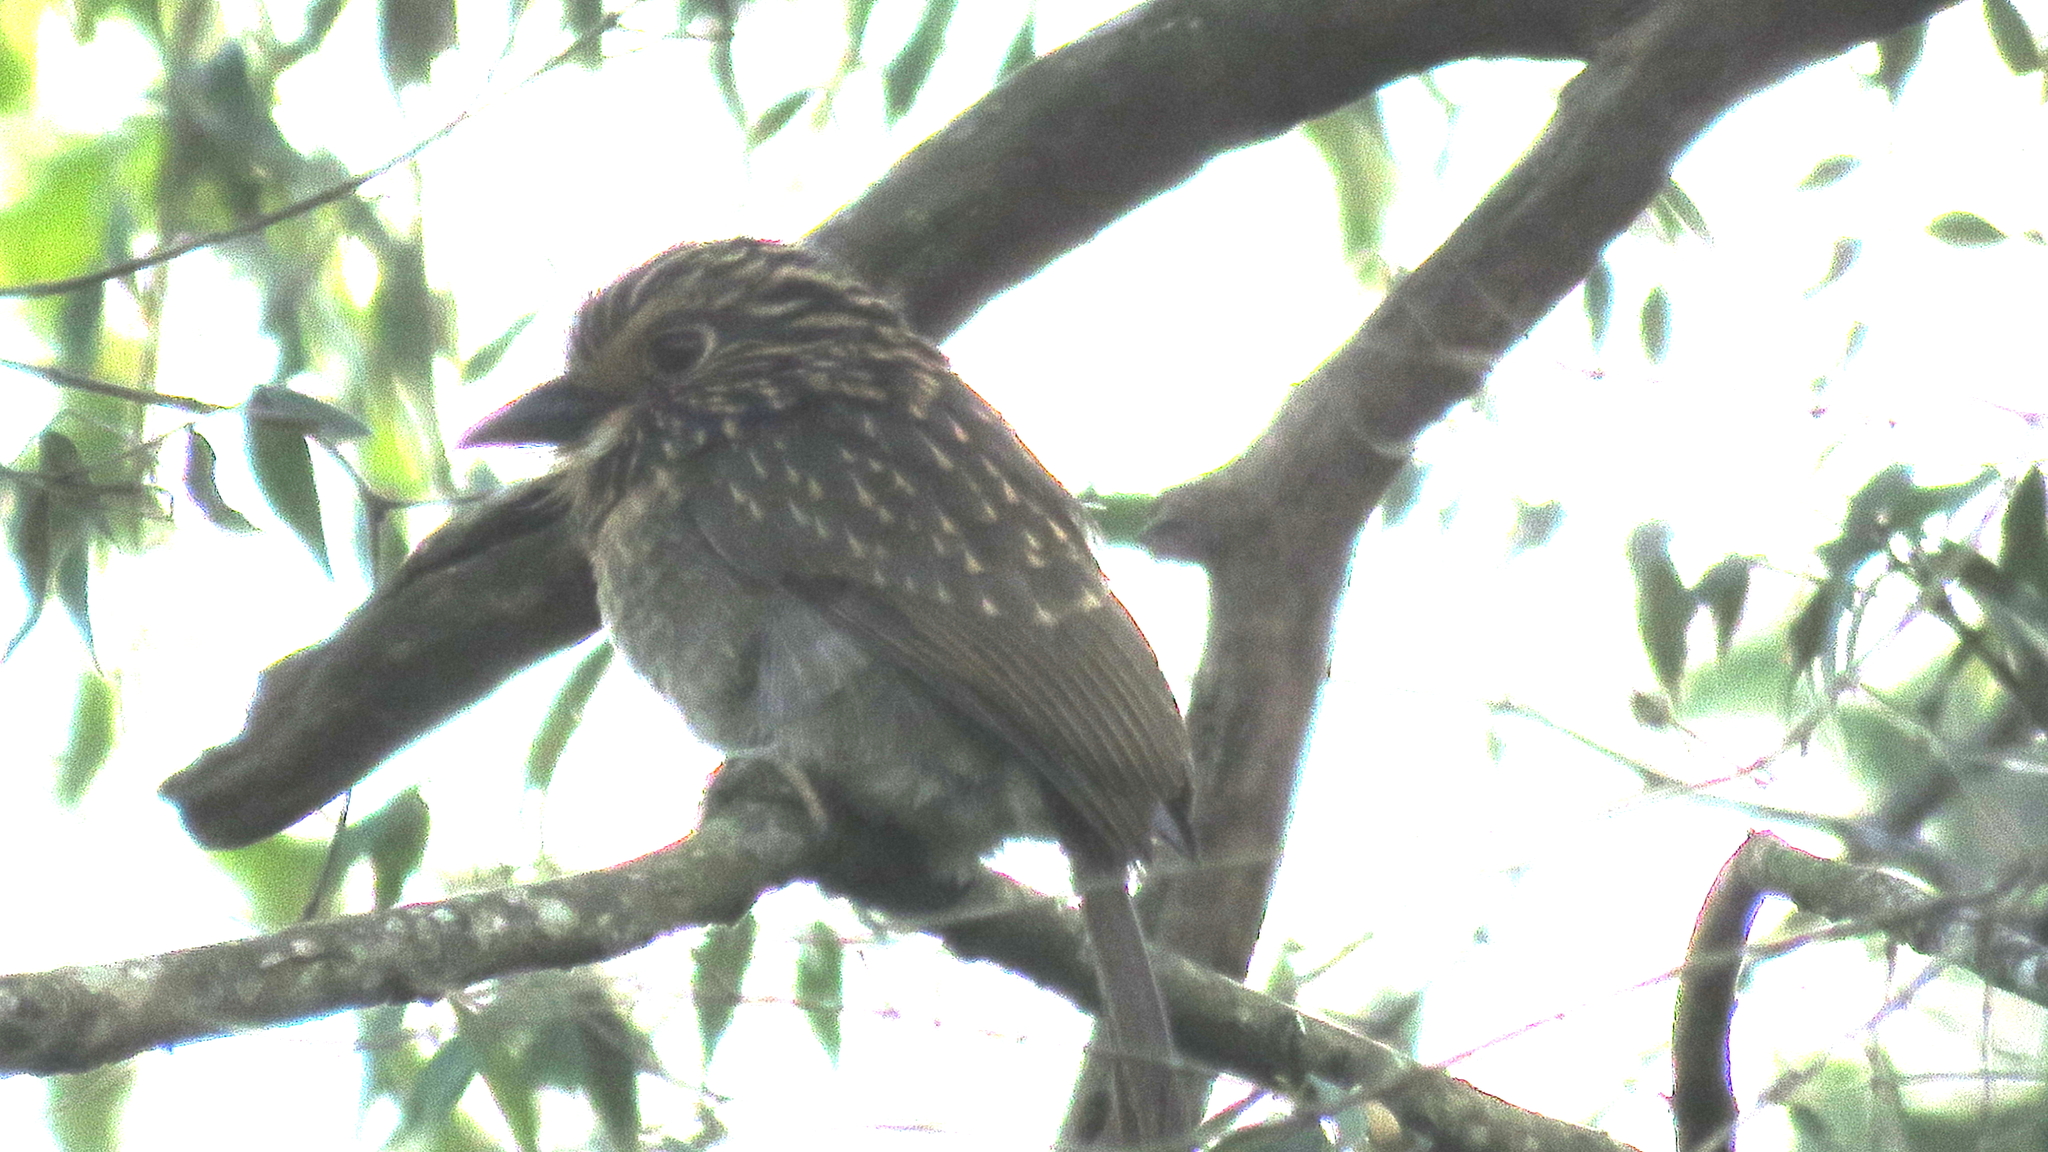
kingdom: Animalia
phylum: Chordata
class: Aves
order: Piciformes
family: Bucconidae
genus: Malacoptila
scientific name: Malacoptila striata
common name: Crescent-chested puffbird
